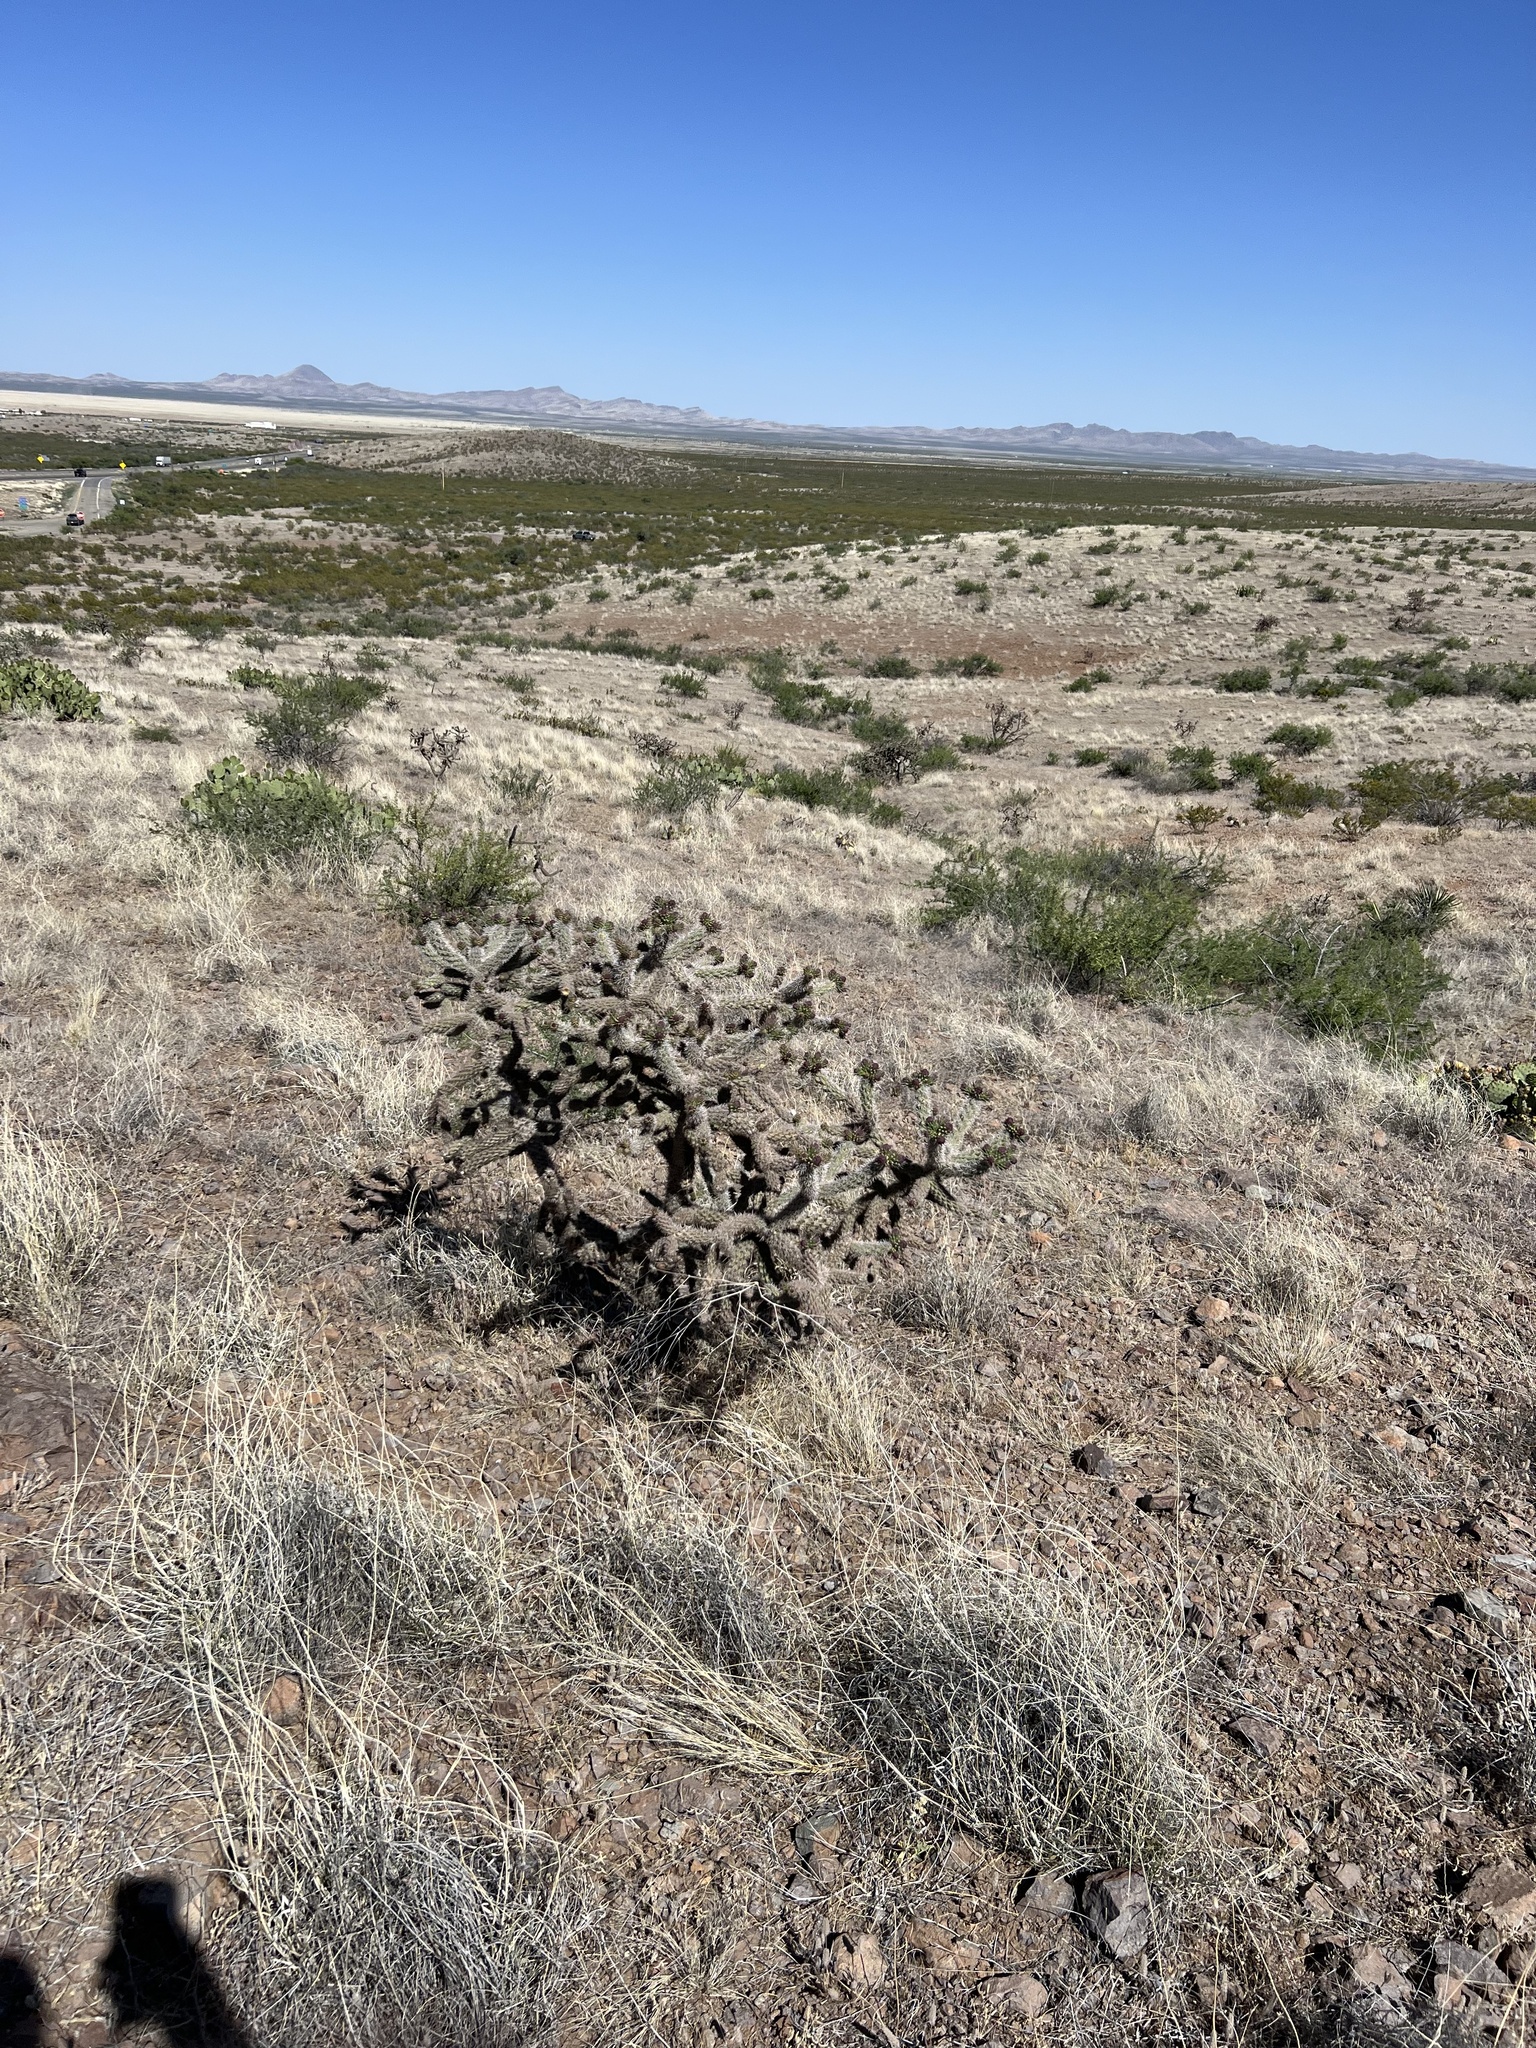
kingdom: Plantae
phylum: Tracheophyta
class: Magnoliopsida
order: Caryophyllales
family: Cactaceae
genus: Cylindropuntia
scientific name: Cylindropuntia imbricata
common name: Candelabrum cactus
